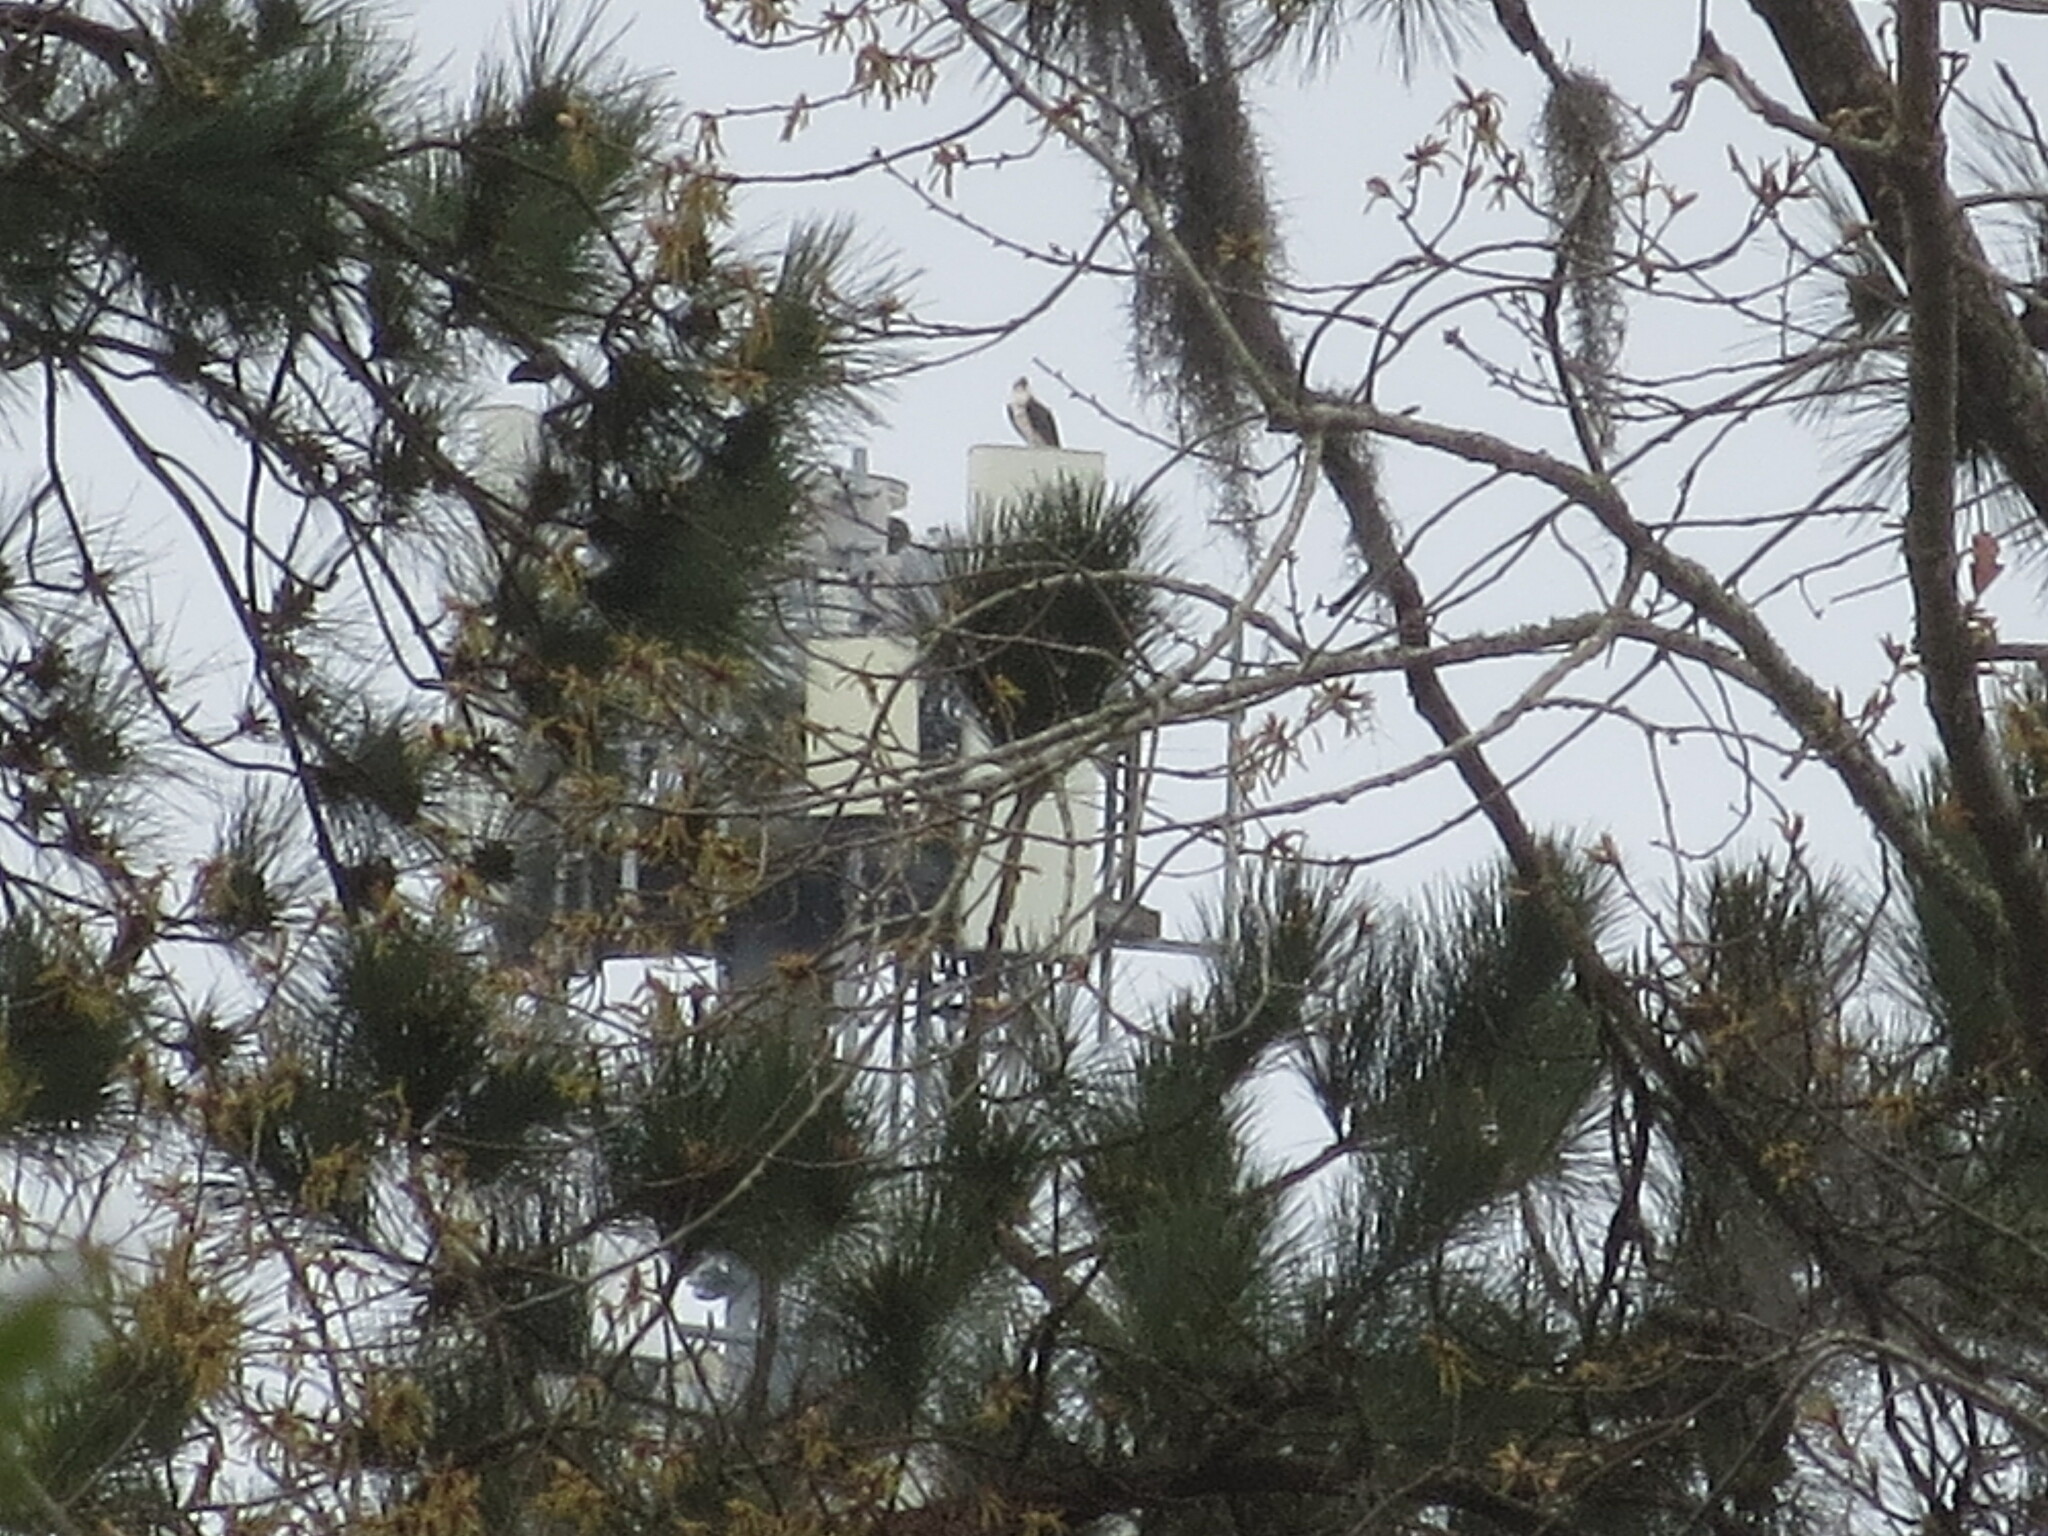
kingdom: Animalia
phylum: Chordata
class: Aves
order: Accipitriformes
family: Pandionidae
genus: Pandion
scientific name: Pandion haliaetus
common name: Osprey
